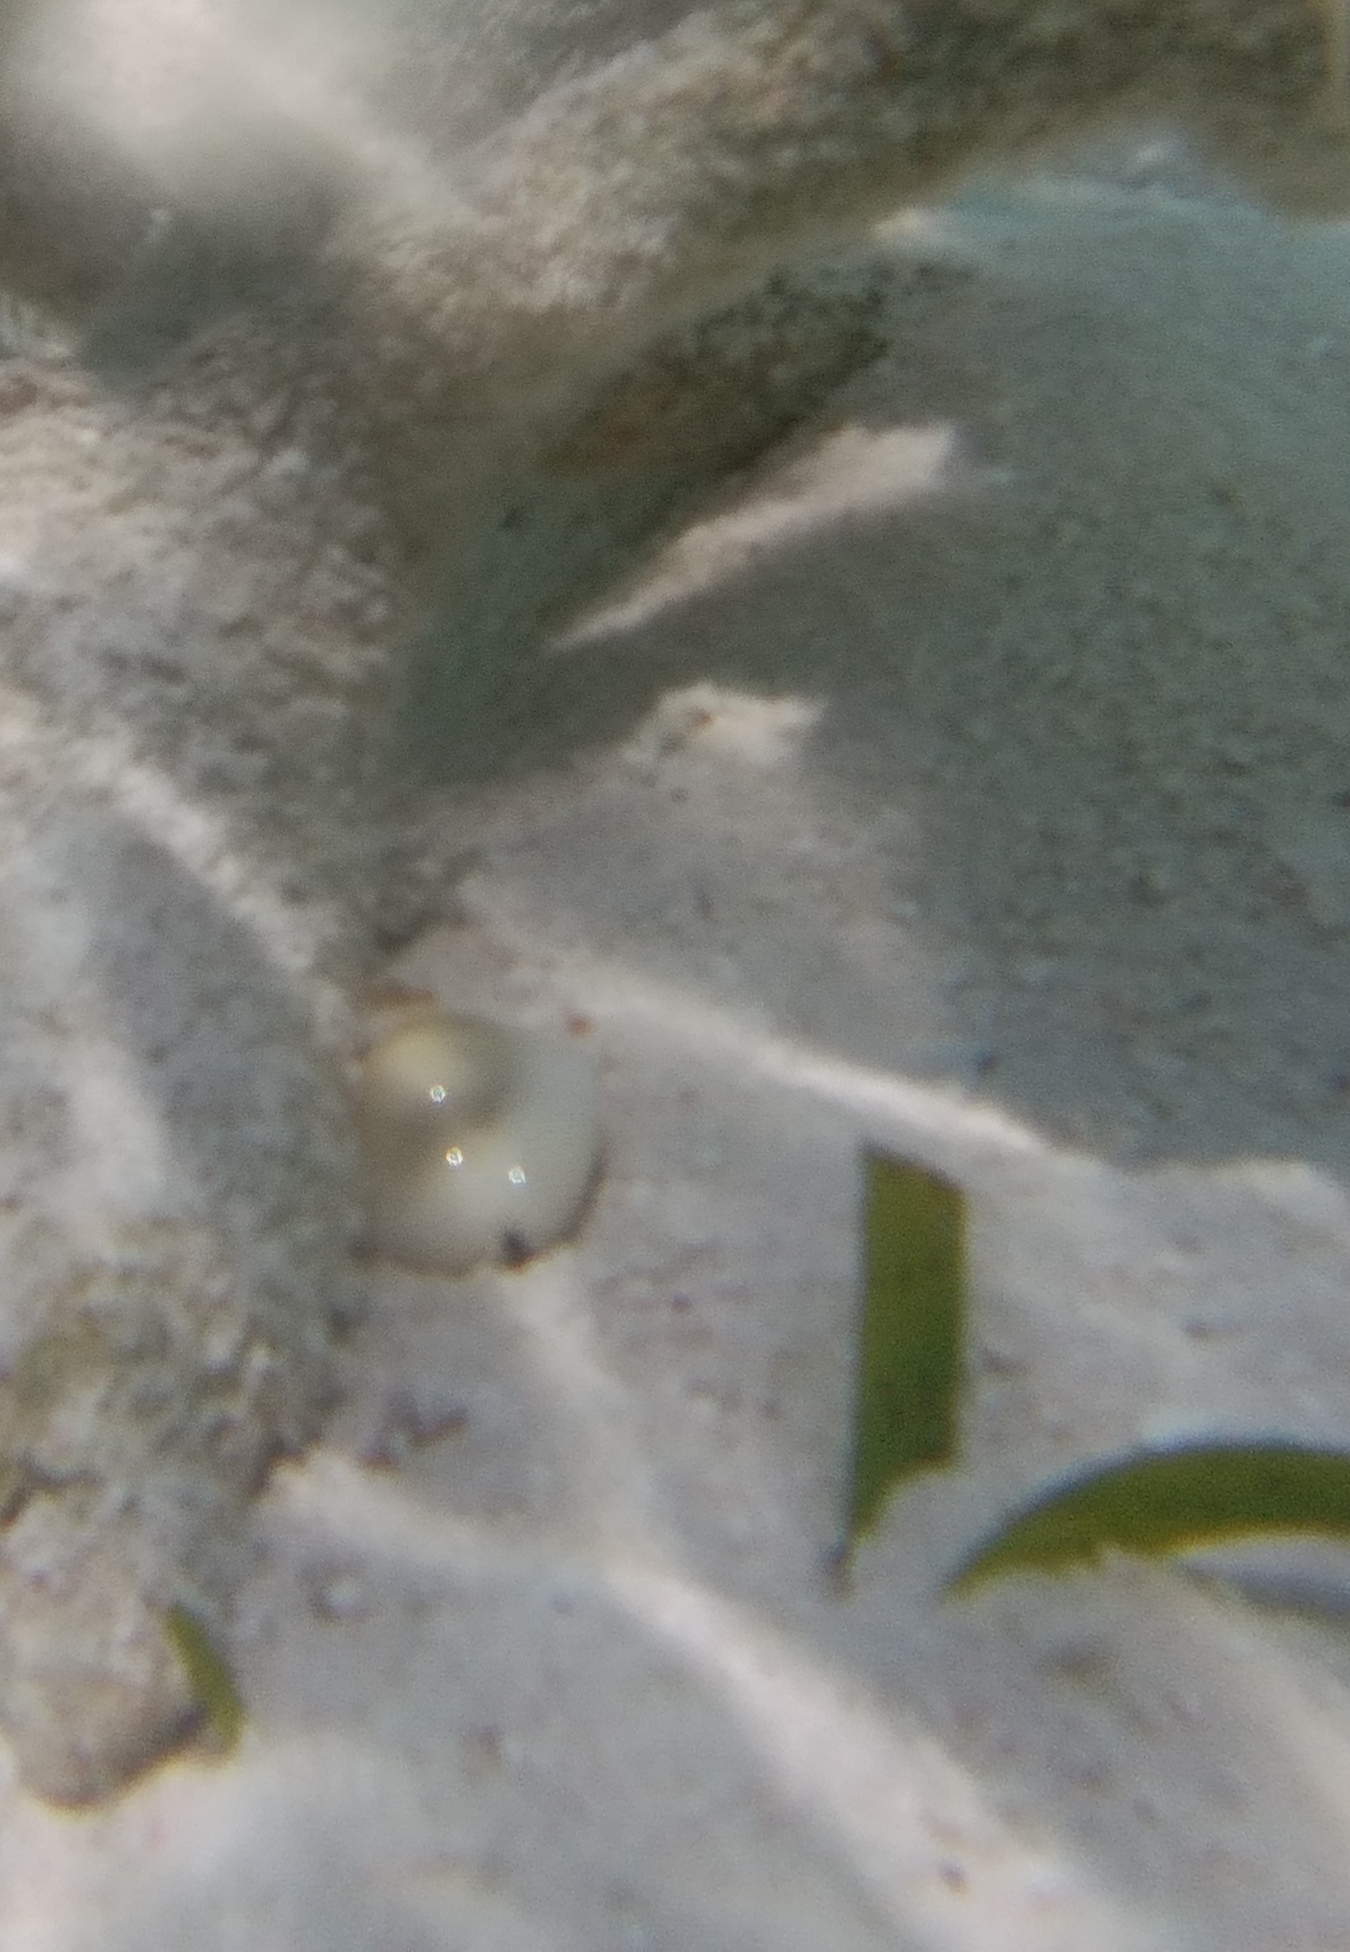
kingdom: Animalia
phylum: Mollusca
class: Gastropoda
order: Littorinimorpha
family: Cypraeidae
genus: Monetaria
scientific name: Monetaria moneta
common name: Money cowrie
